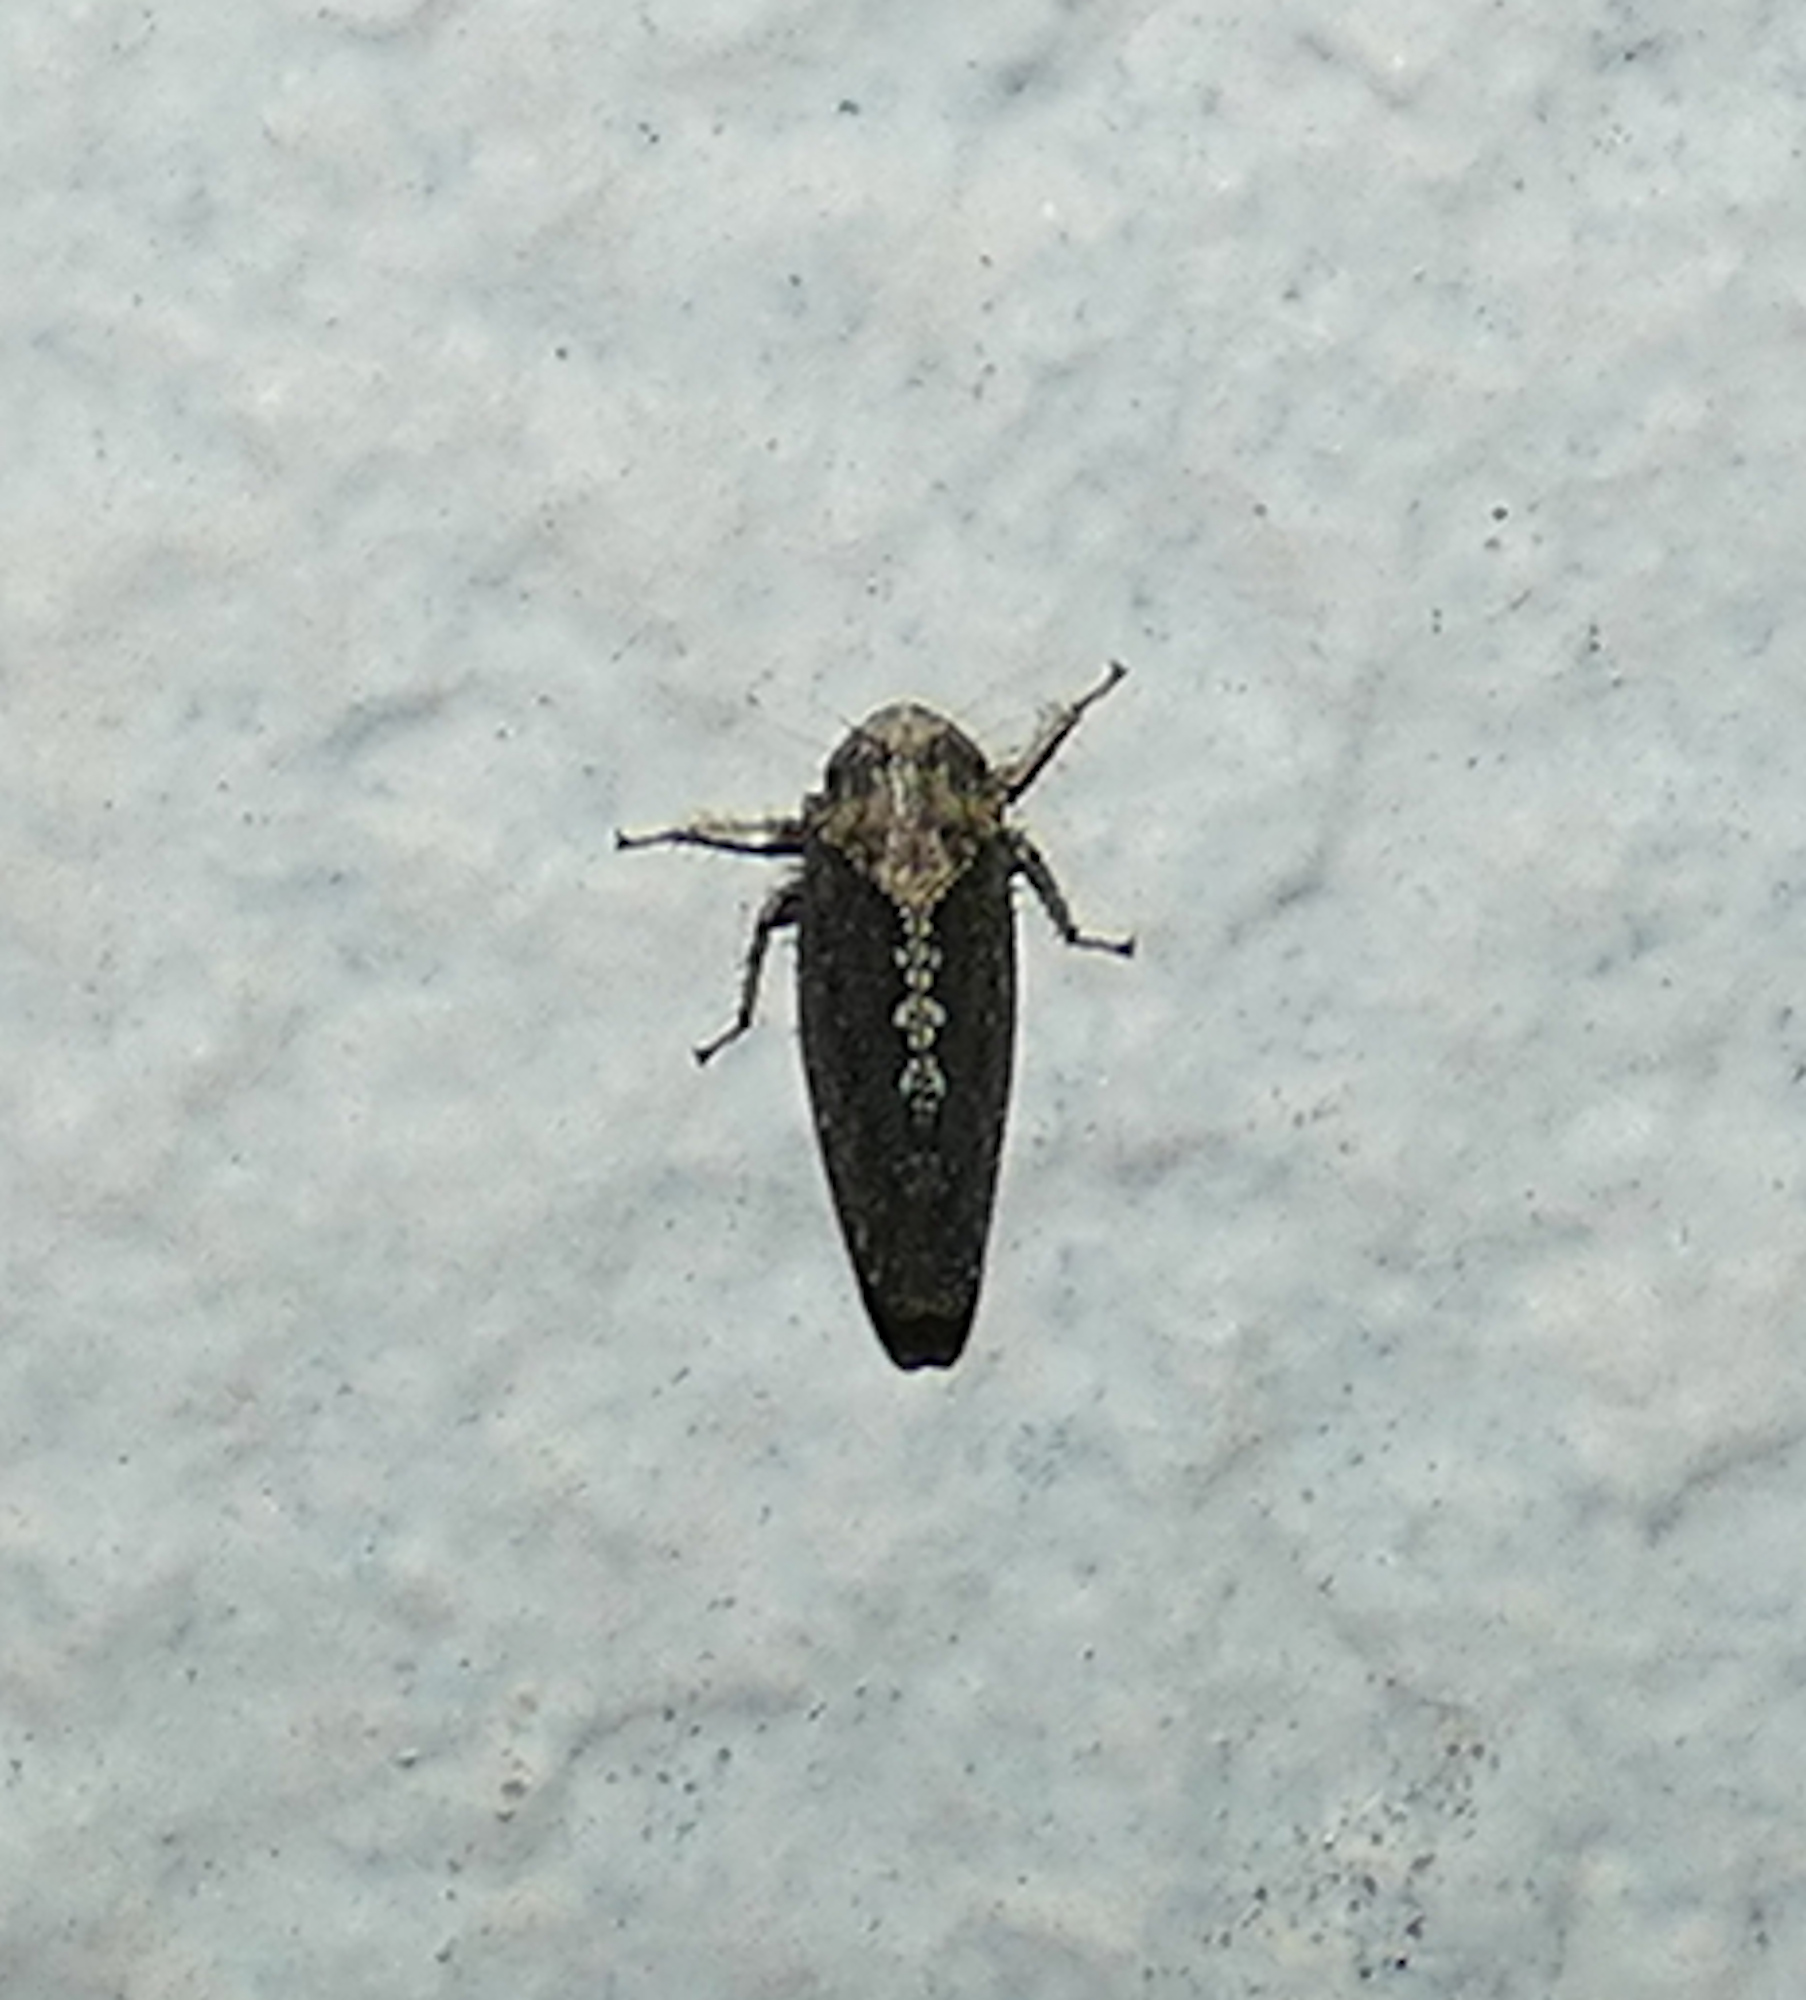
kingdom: Animalia
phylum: Arthropoda
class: Insecta
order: Hemiptera
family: Cicadellidae
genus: Excultanus
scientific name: Excultanus excultus
